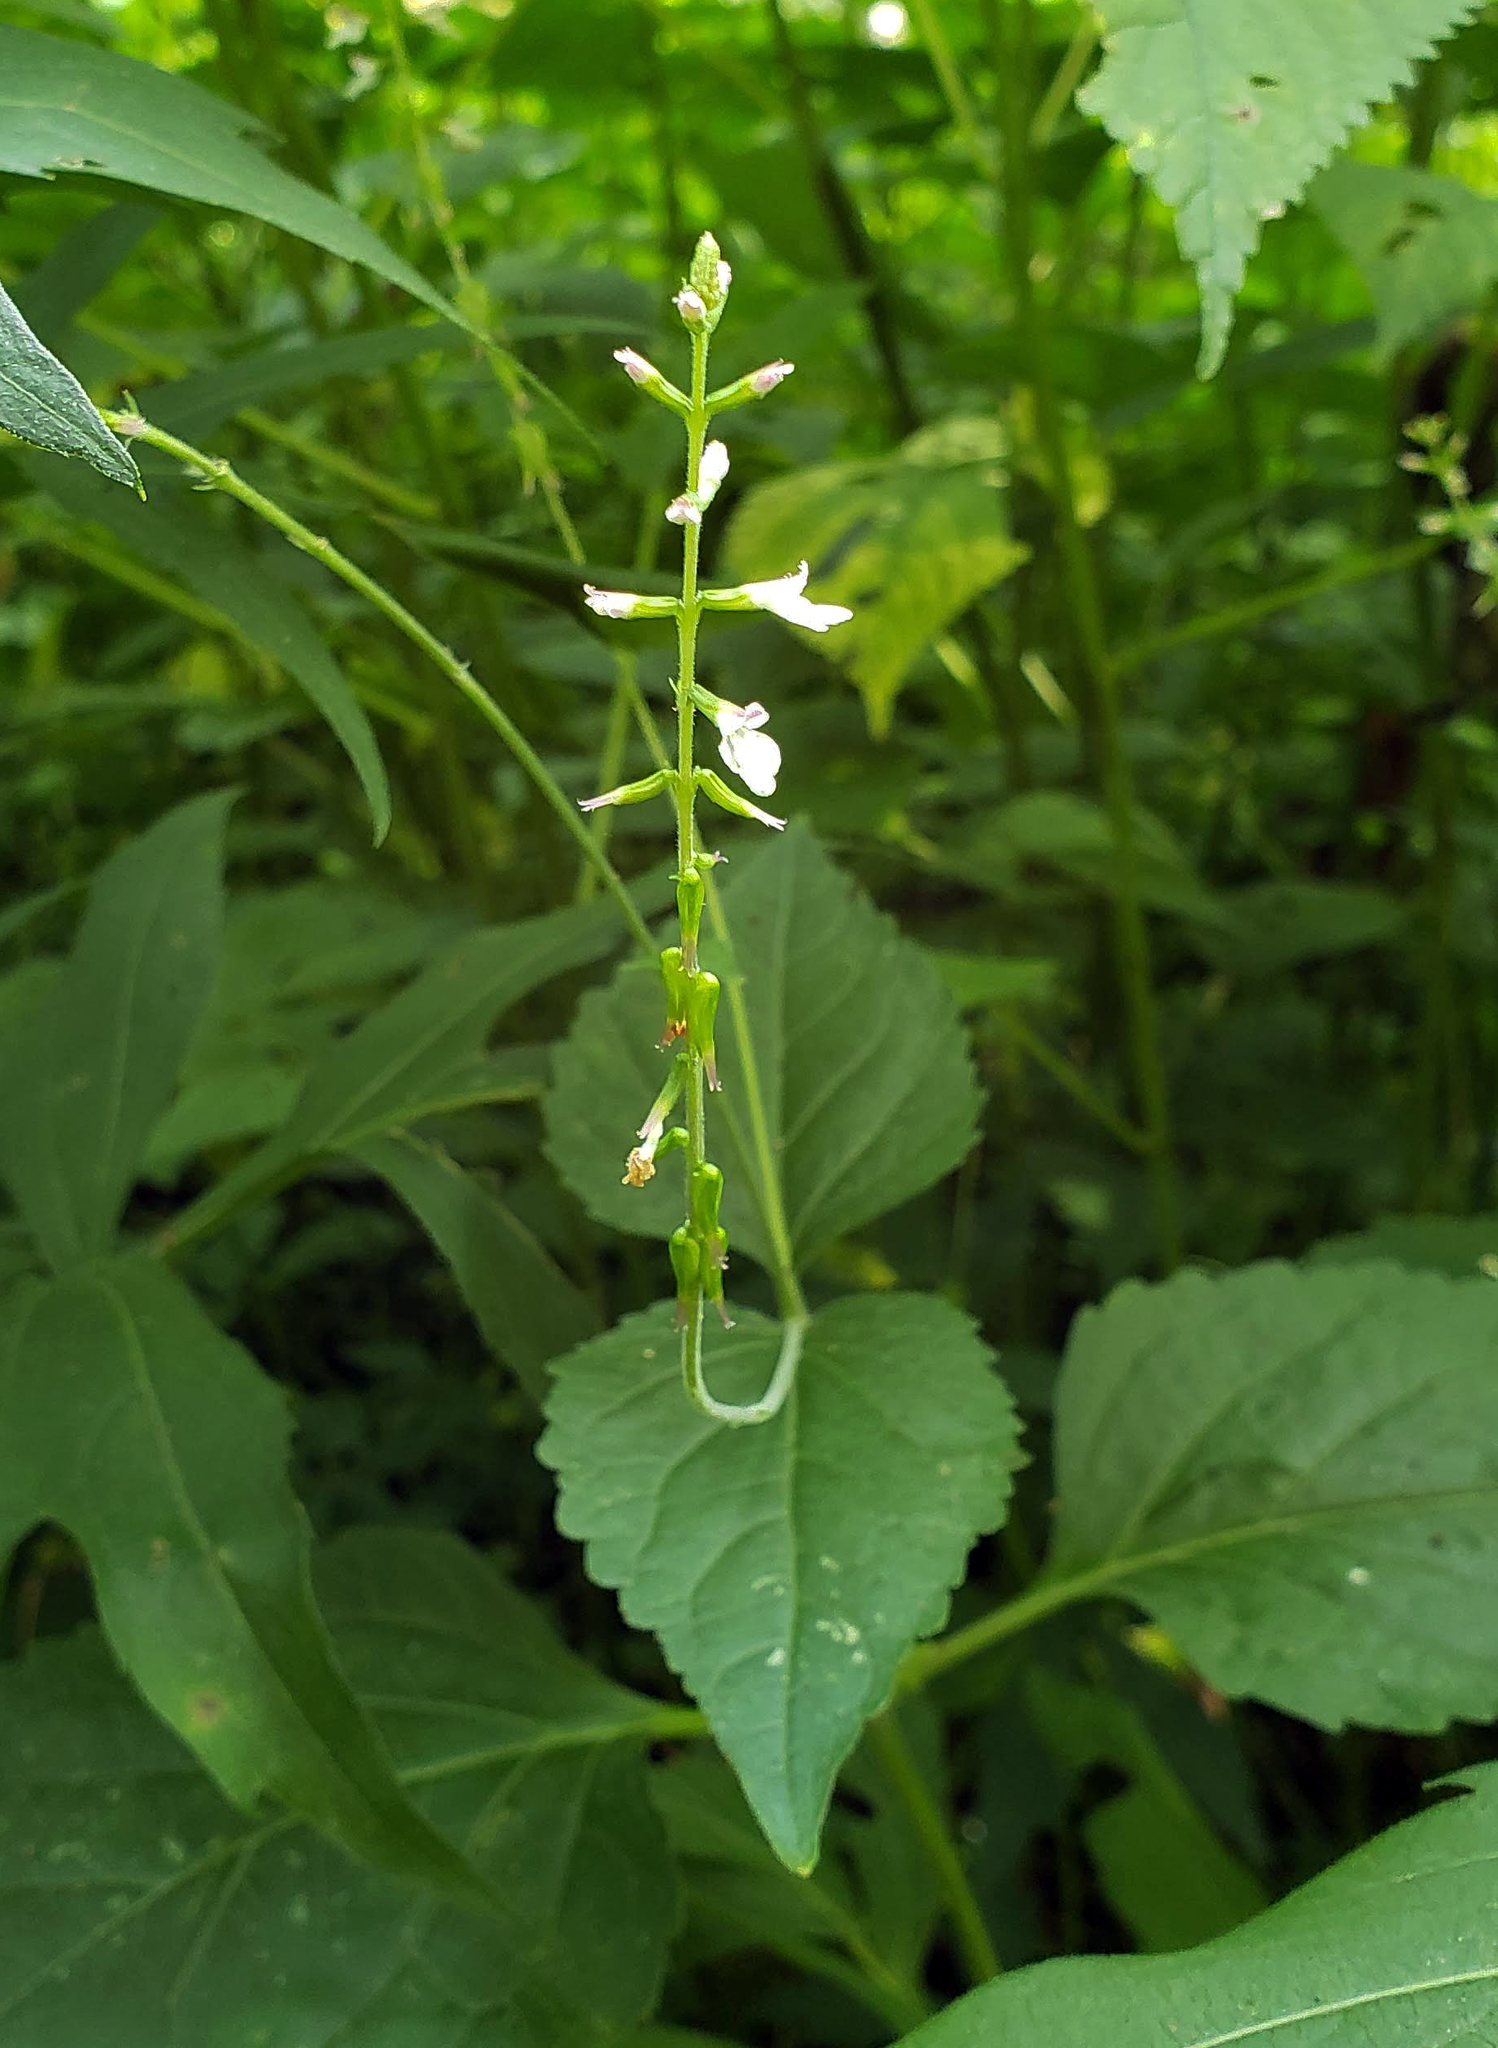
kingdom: Plantae
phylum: Tracheophyta
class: Magnoliopsida
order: Lamiales
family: Phrymaceae
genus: Phryma
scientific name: Phryma leptostachya
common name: American lopseed
